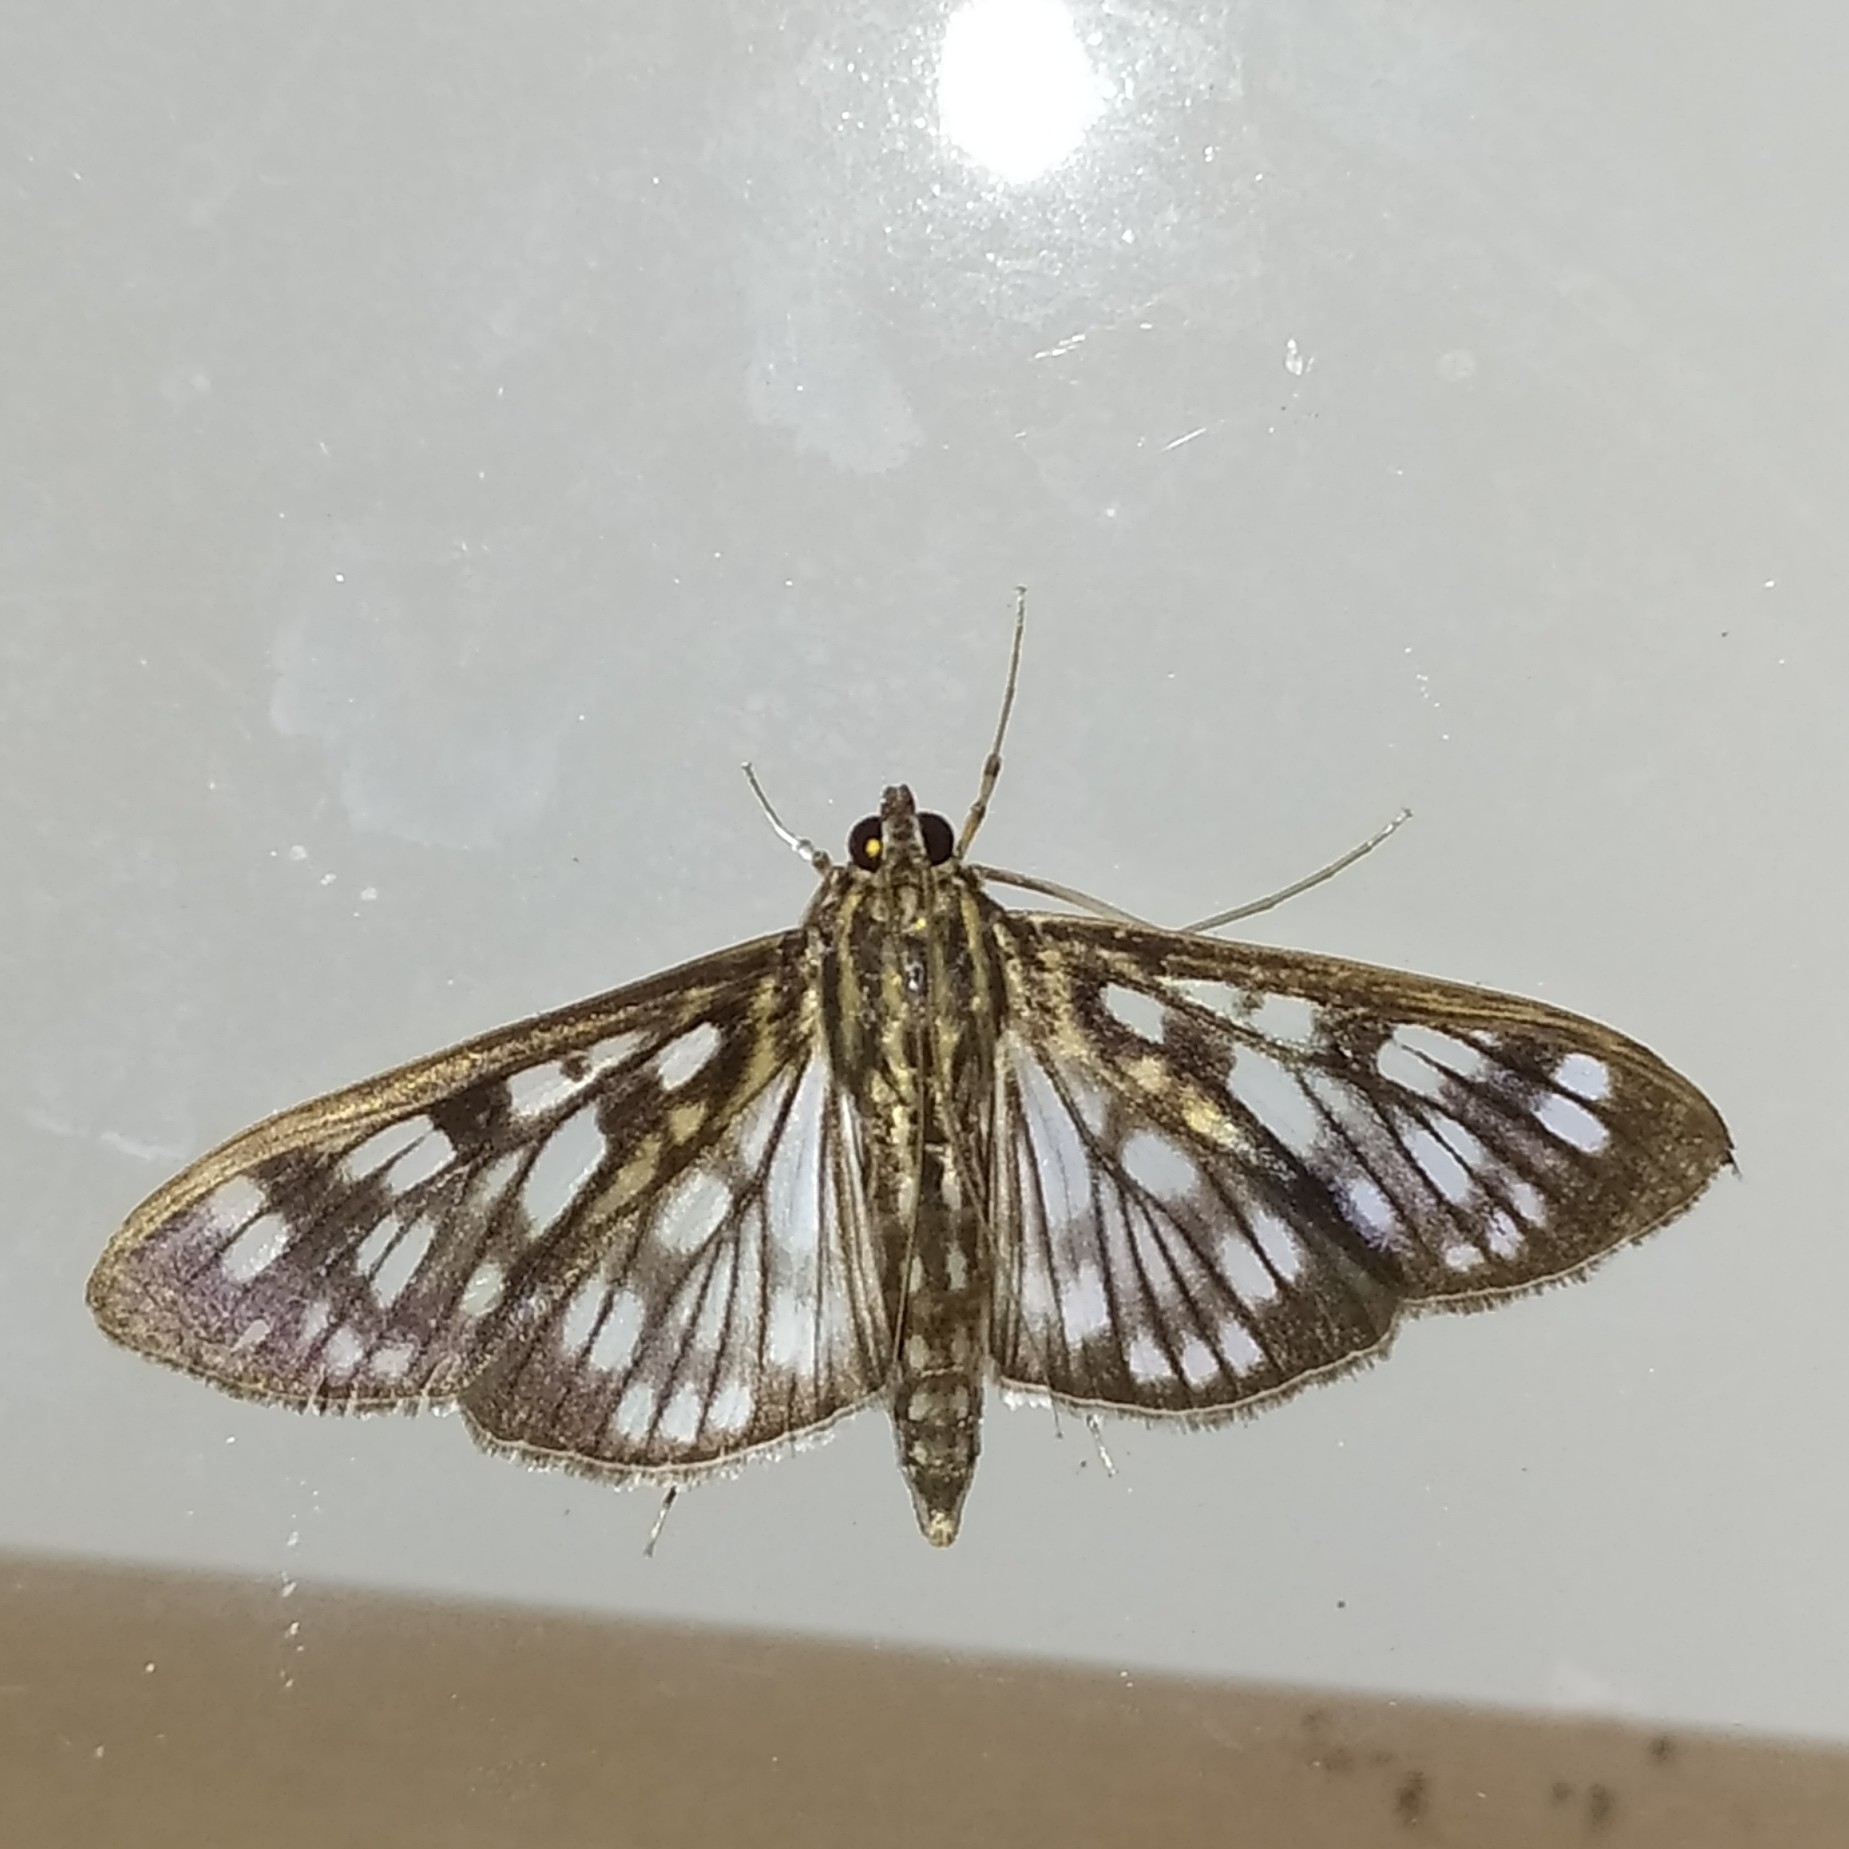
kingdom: Animalia
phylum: Arthropoda
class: Insecta
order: Lepidoptera
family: Crambidae
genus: Pygospila
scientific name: Pygospila tyres
